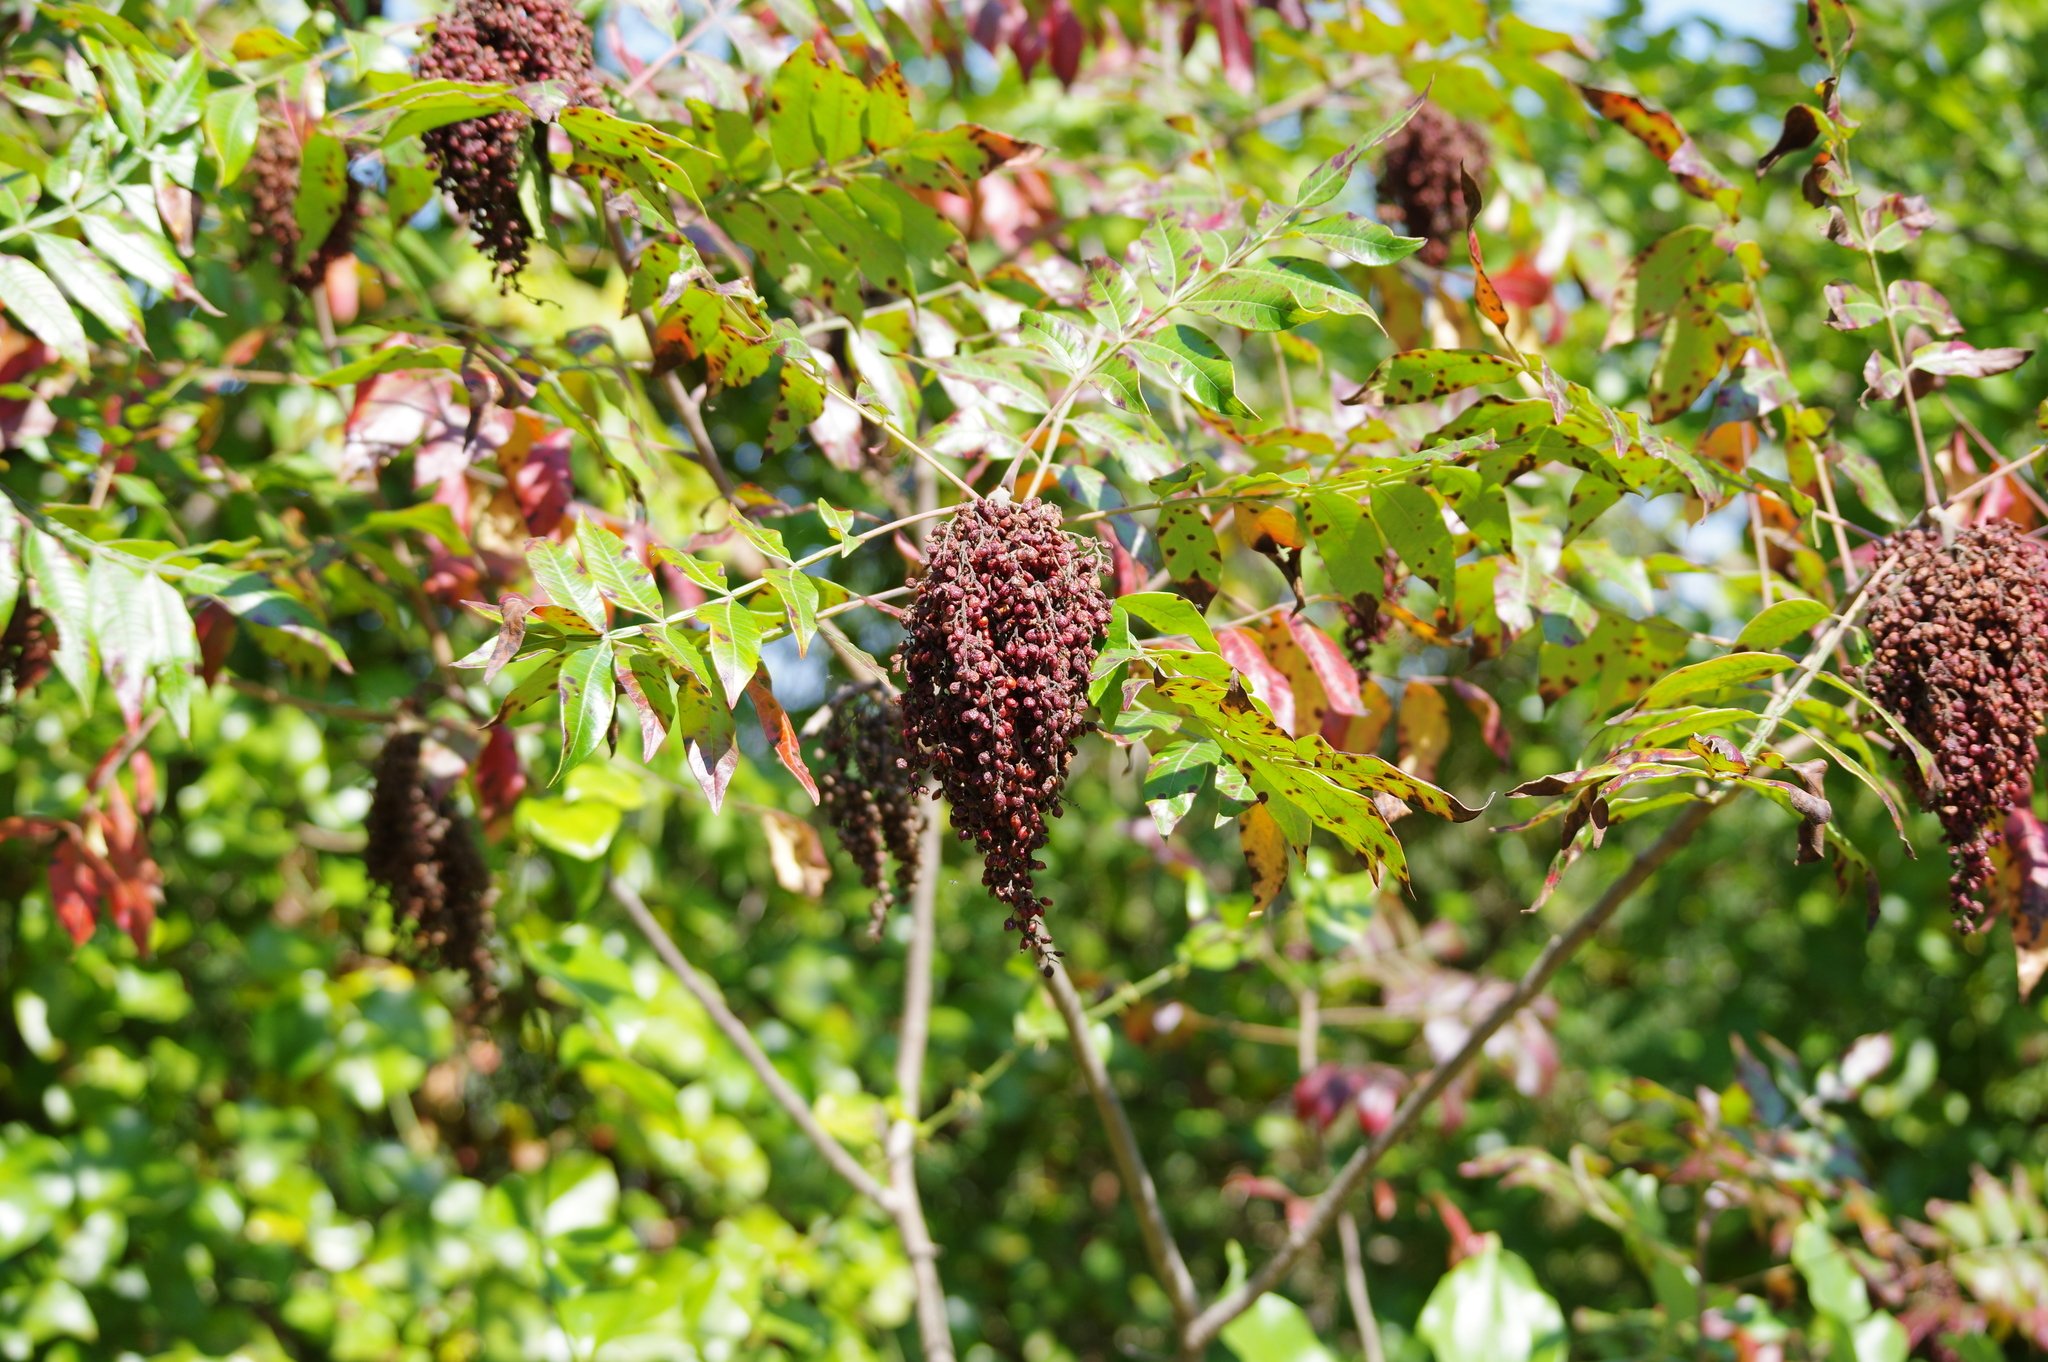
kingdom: Plantae
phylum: Tracheophyta
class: Magnoliopsida
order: Sapindales
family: Anacardiaceae
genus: Rhus
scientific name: Rhus copallina
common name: Shining sumac
